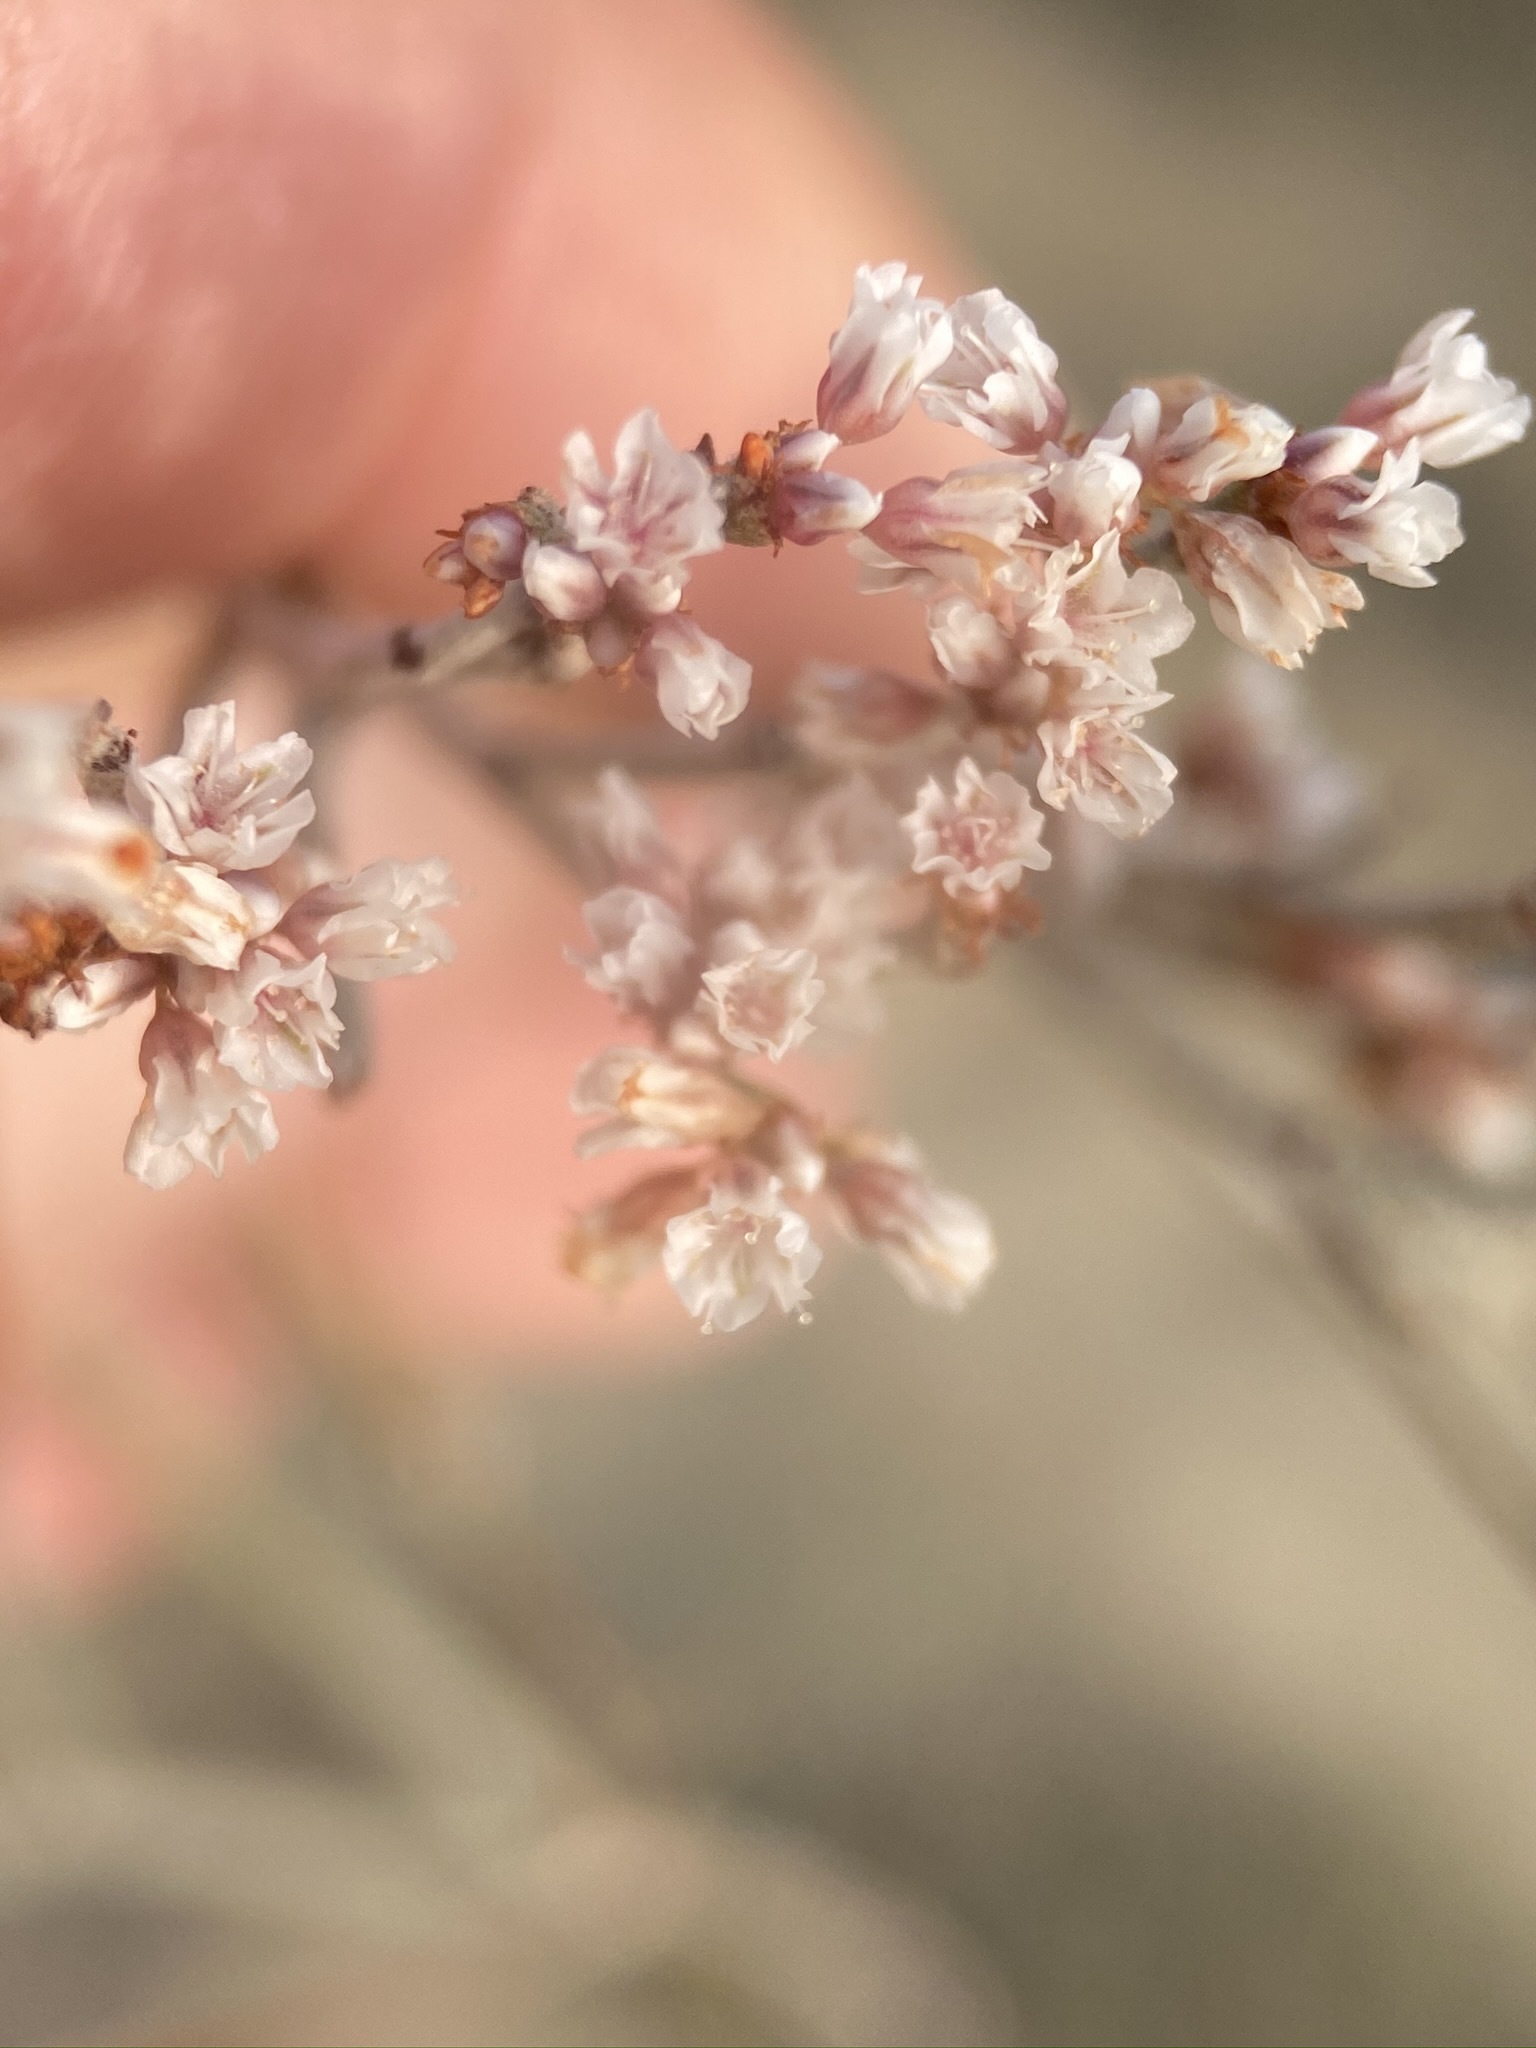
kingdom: Plantae
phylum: Tracheophyta
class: Magnoliopsida
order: Caryophyllales
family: Polygonaceae
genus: Eriogonum
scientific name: Eriogonum effusum
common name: Spreading wild buckwheat
